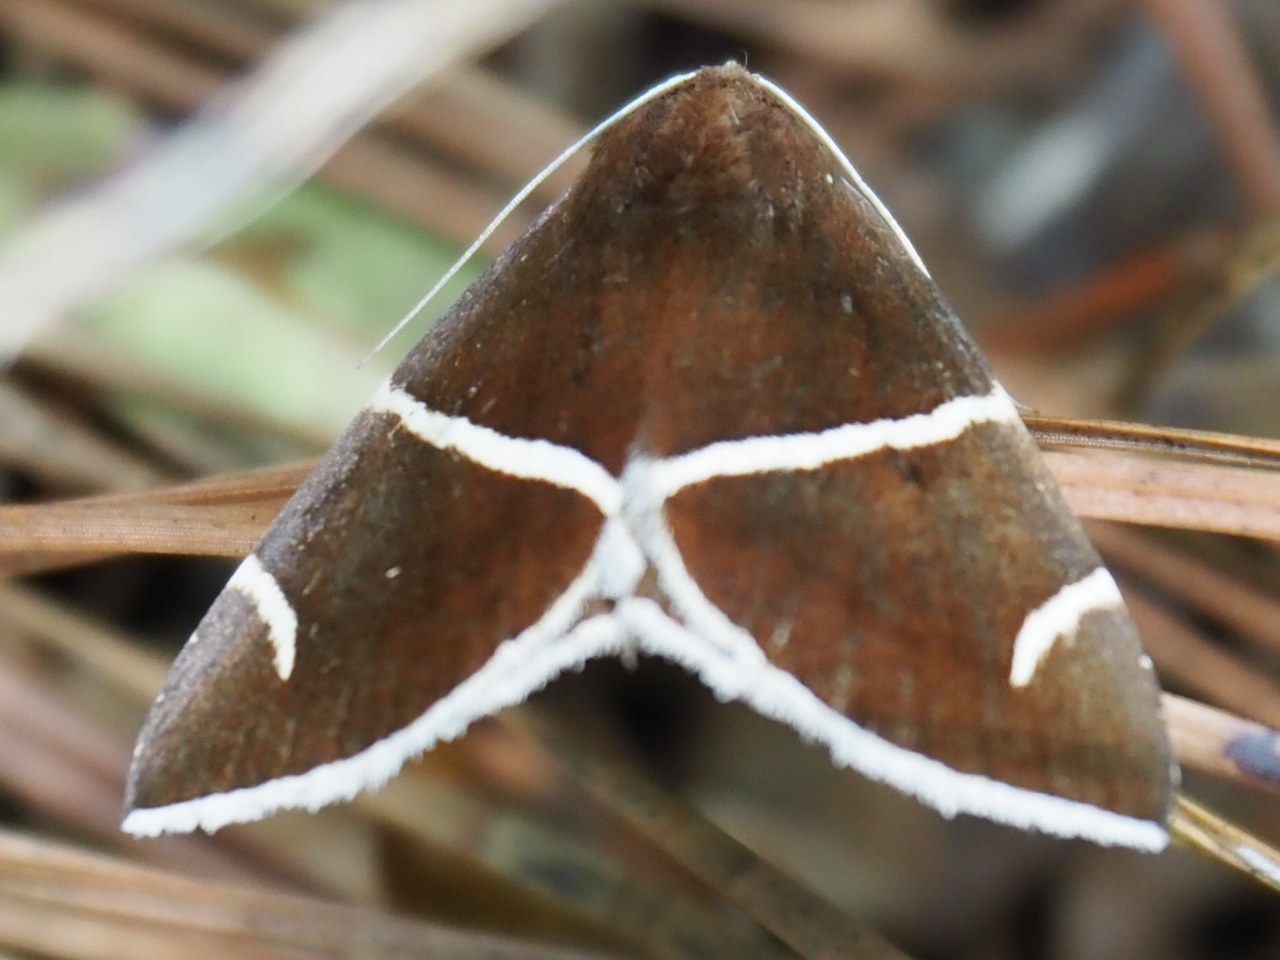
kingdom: Animalia
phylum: Arthropoda
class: Insecta
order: Lepidoptera
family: Erebidae
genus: Argyrostrotis
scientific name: Argyrostrotis anilis
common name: Short-lined chocolate
